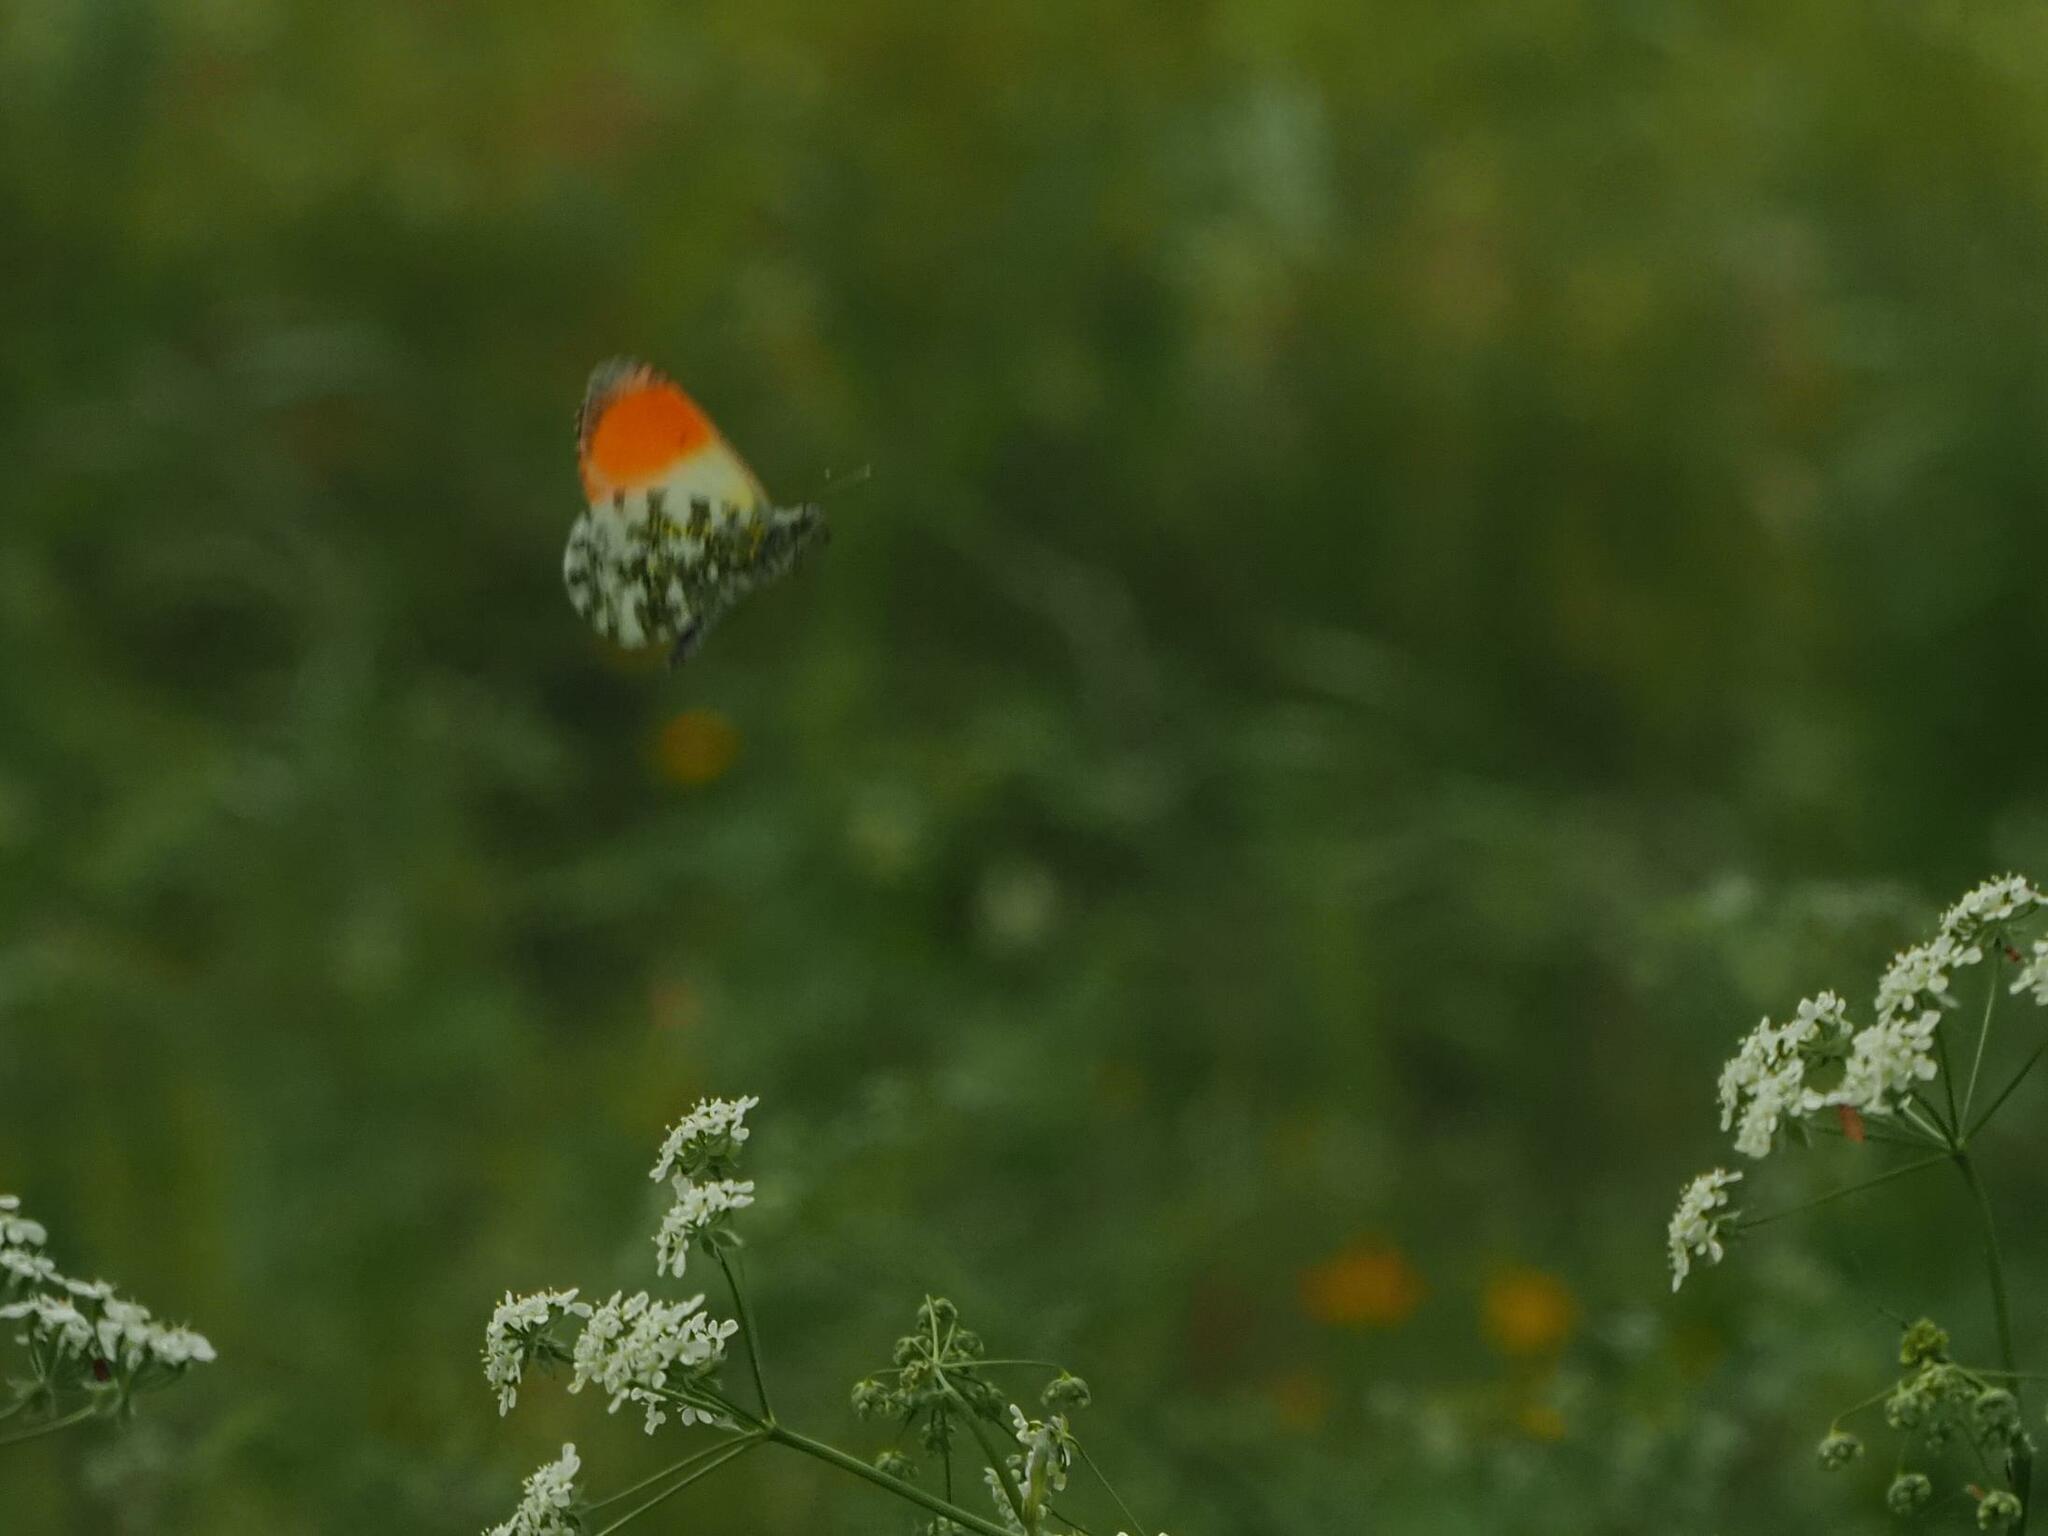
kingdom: Animalia
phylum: Arthropoda
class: Insecta
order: Lepidoptera
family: Pieridae
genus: Anthocharis
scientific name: Anthocharis cardamines
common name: Orange-tip
